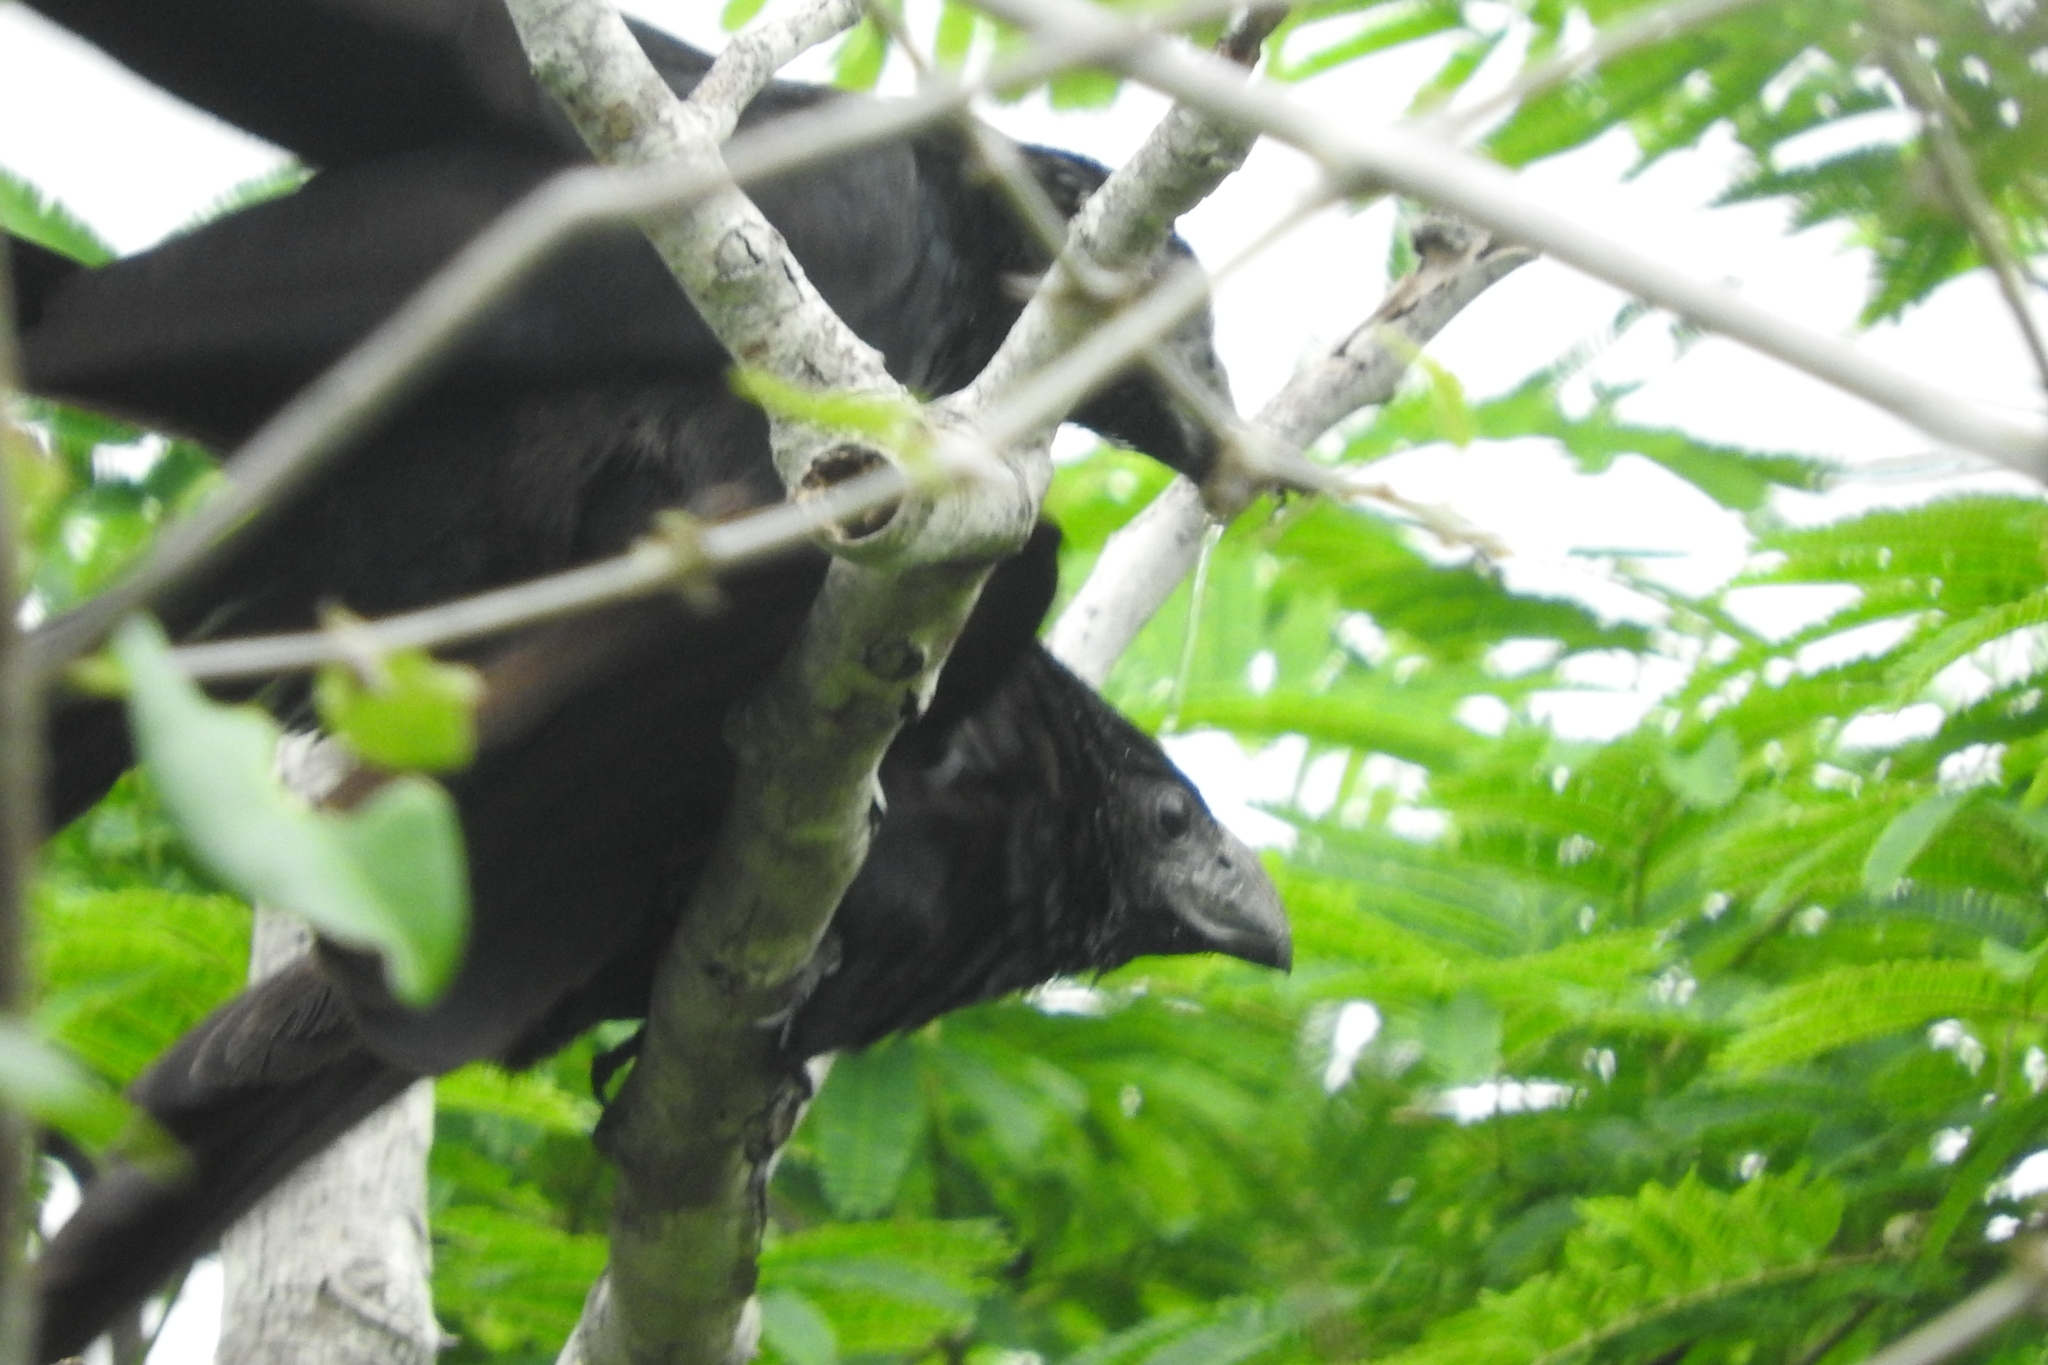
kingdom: Animalia
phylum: Chordata
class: Aves
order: Cuculiformes
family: Cuculidae
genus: Crotophaga
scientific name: Crotophaga sulcirostris
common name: Groove-billed ani
